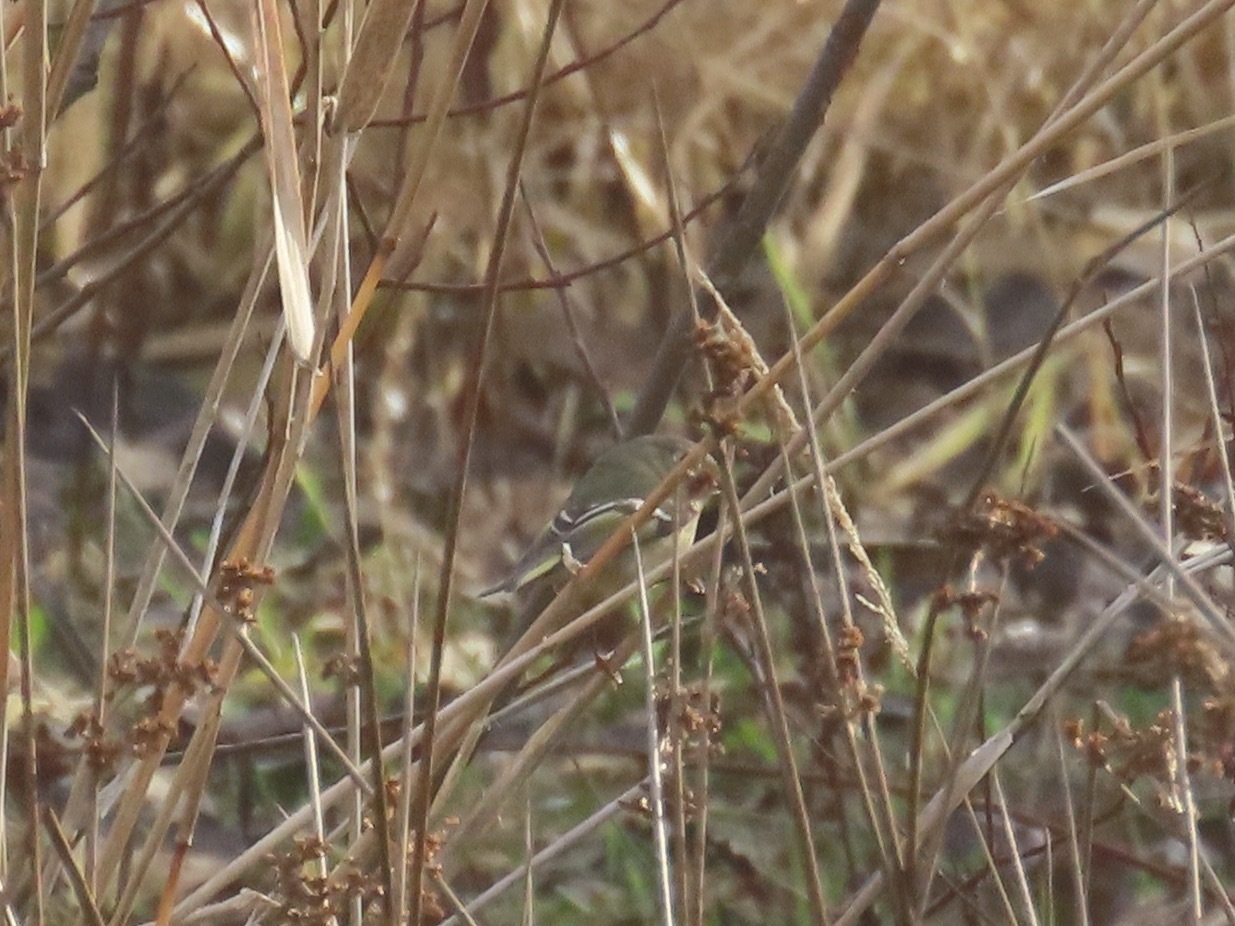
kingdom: Animalia
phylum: Chordata
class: Aves
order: Passeriformes
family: Regulidae
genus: Regulus
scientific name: Regulus calendula
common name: Ruby-crowned kinglet
